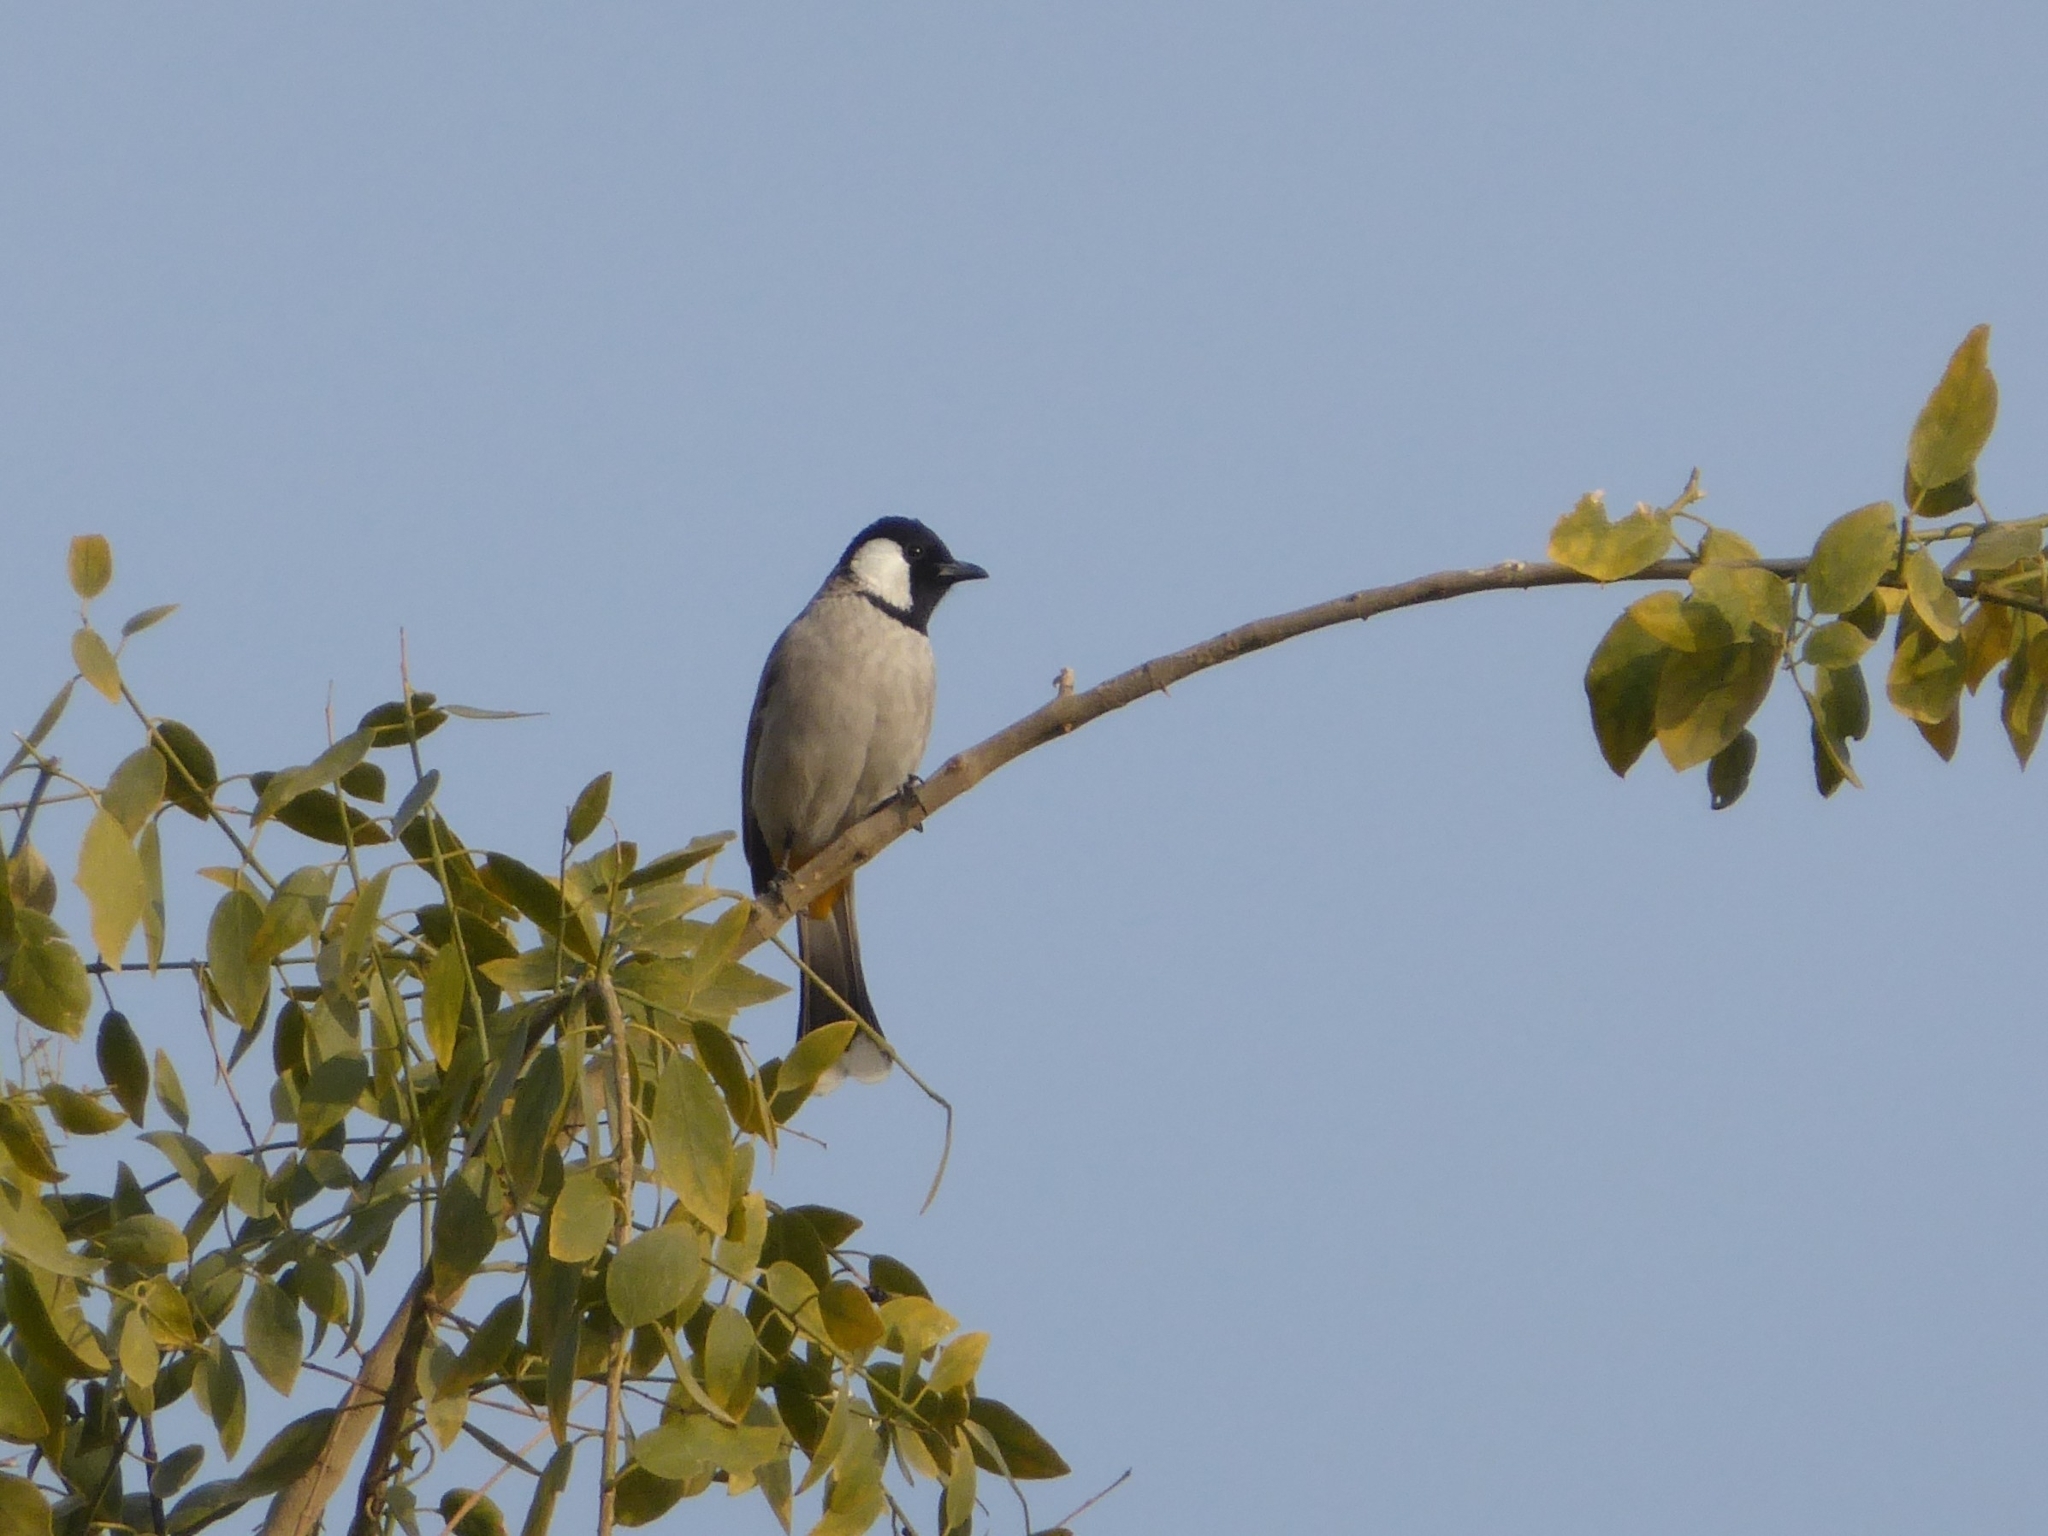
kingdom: Animalia
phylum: Chordata
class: Aves
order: Passeriformes
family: Pycnonotidae
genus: Pycnonotus
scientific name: Pycnonotus leucotis
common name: White-eared bulbul
